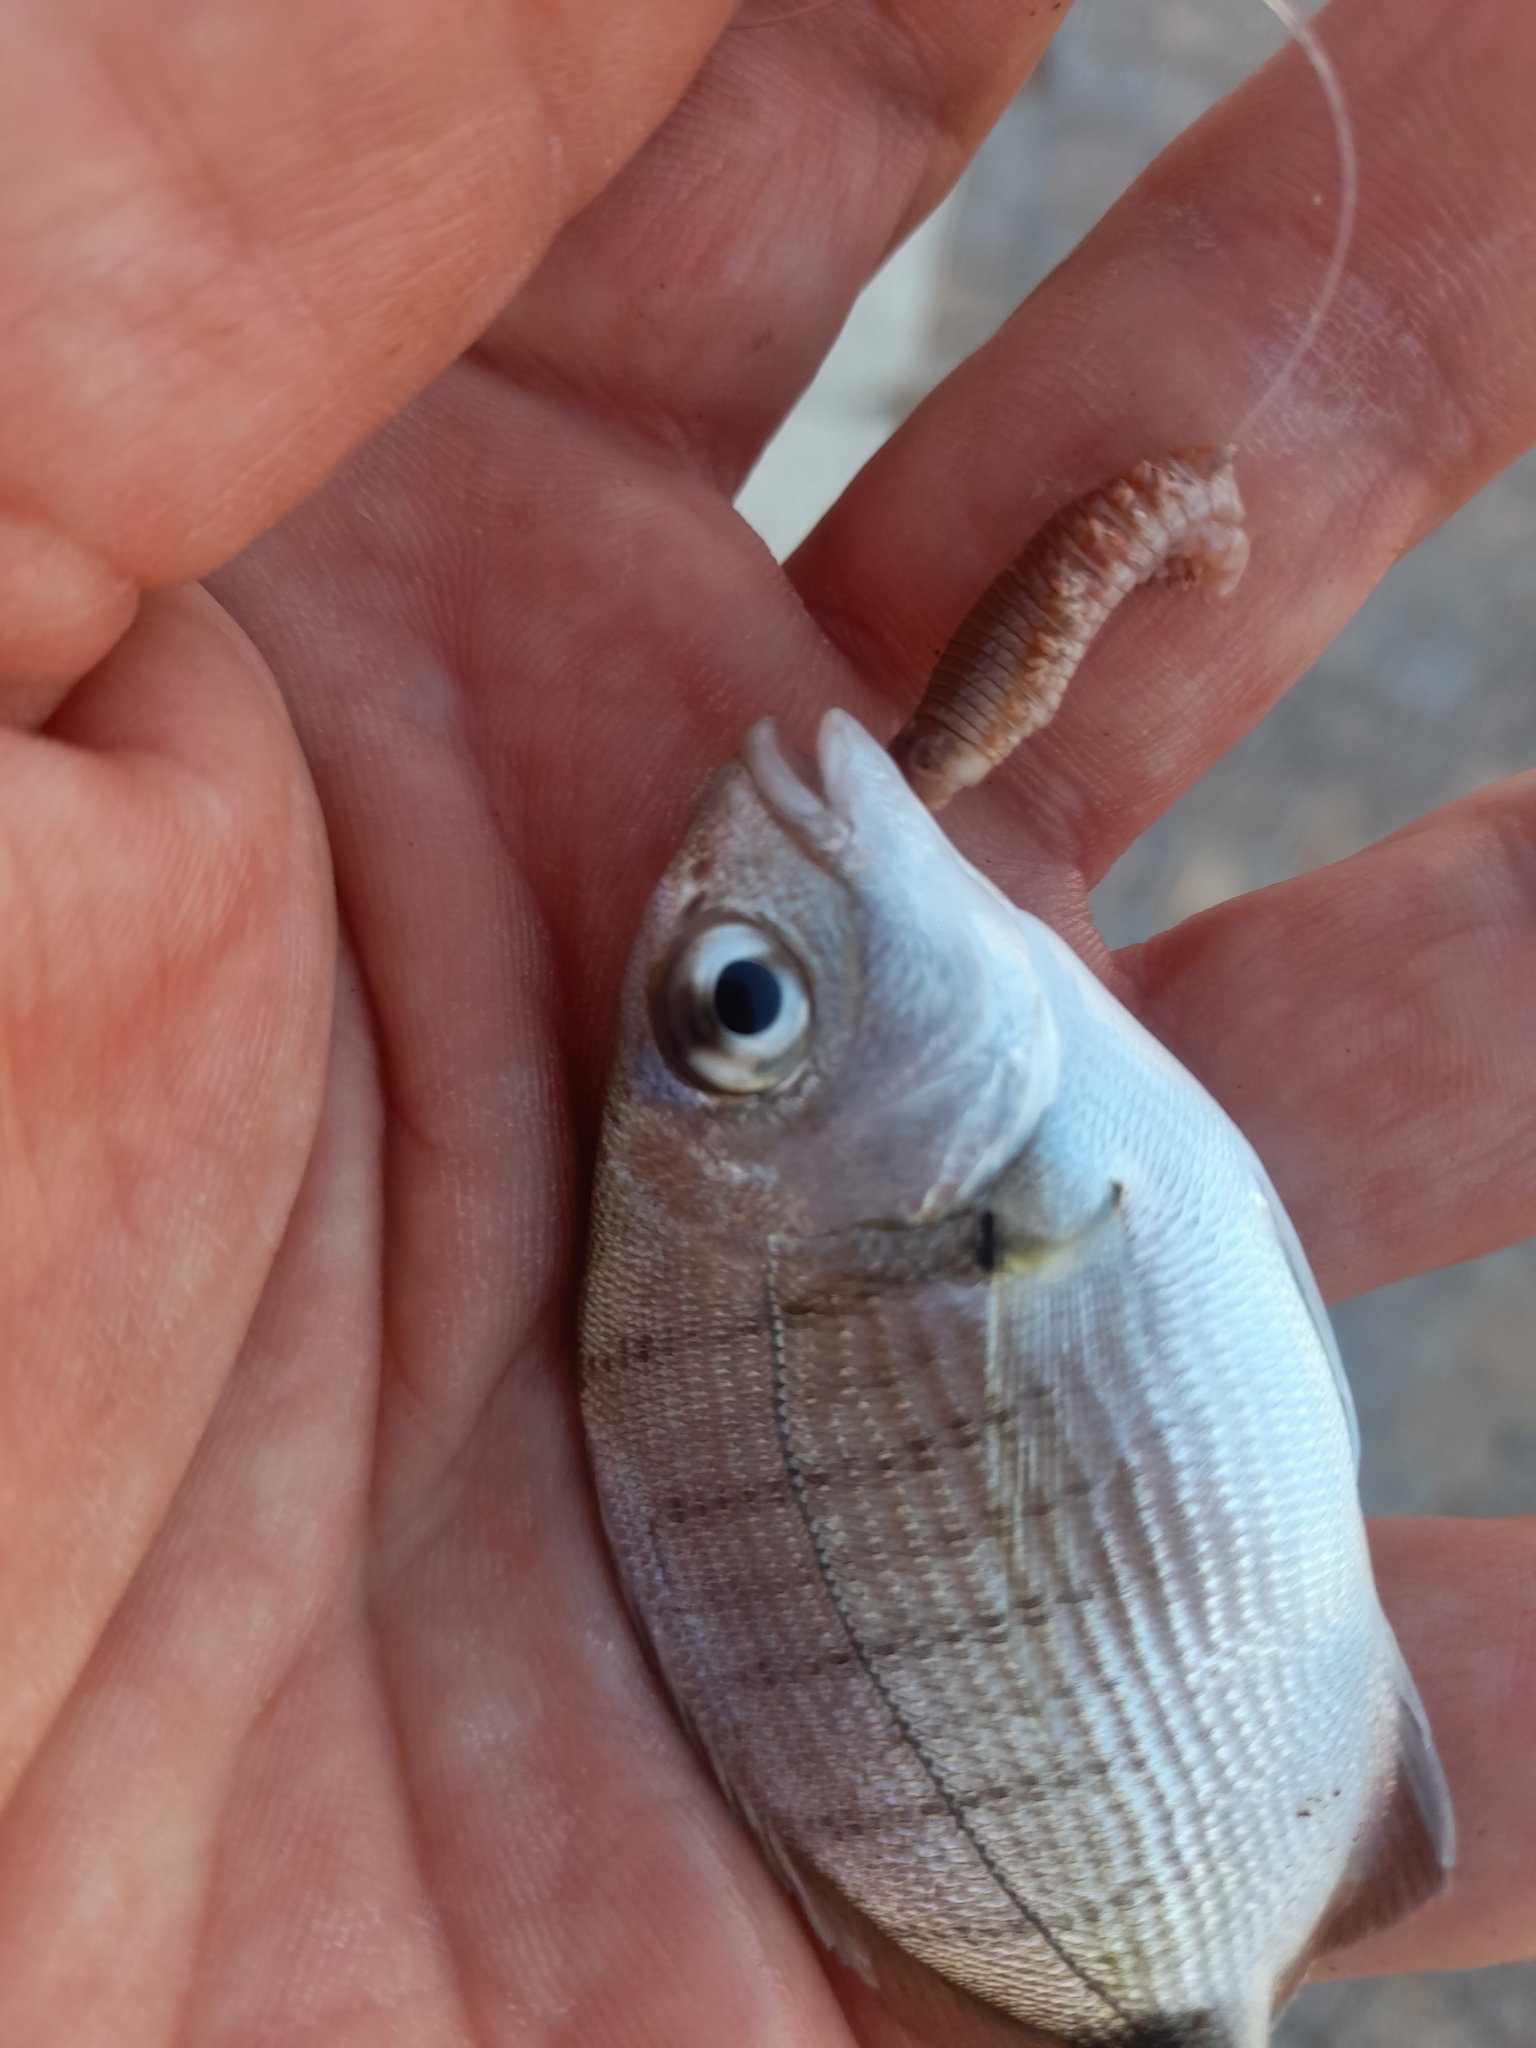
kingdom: Animalia
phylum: Chordata
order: Perciformes
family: Sparidae
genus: Diplodus
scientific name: Diplodus sargus
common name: White seabream
